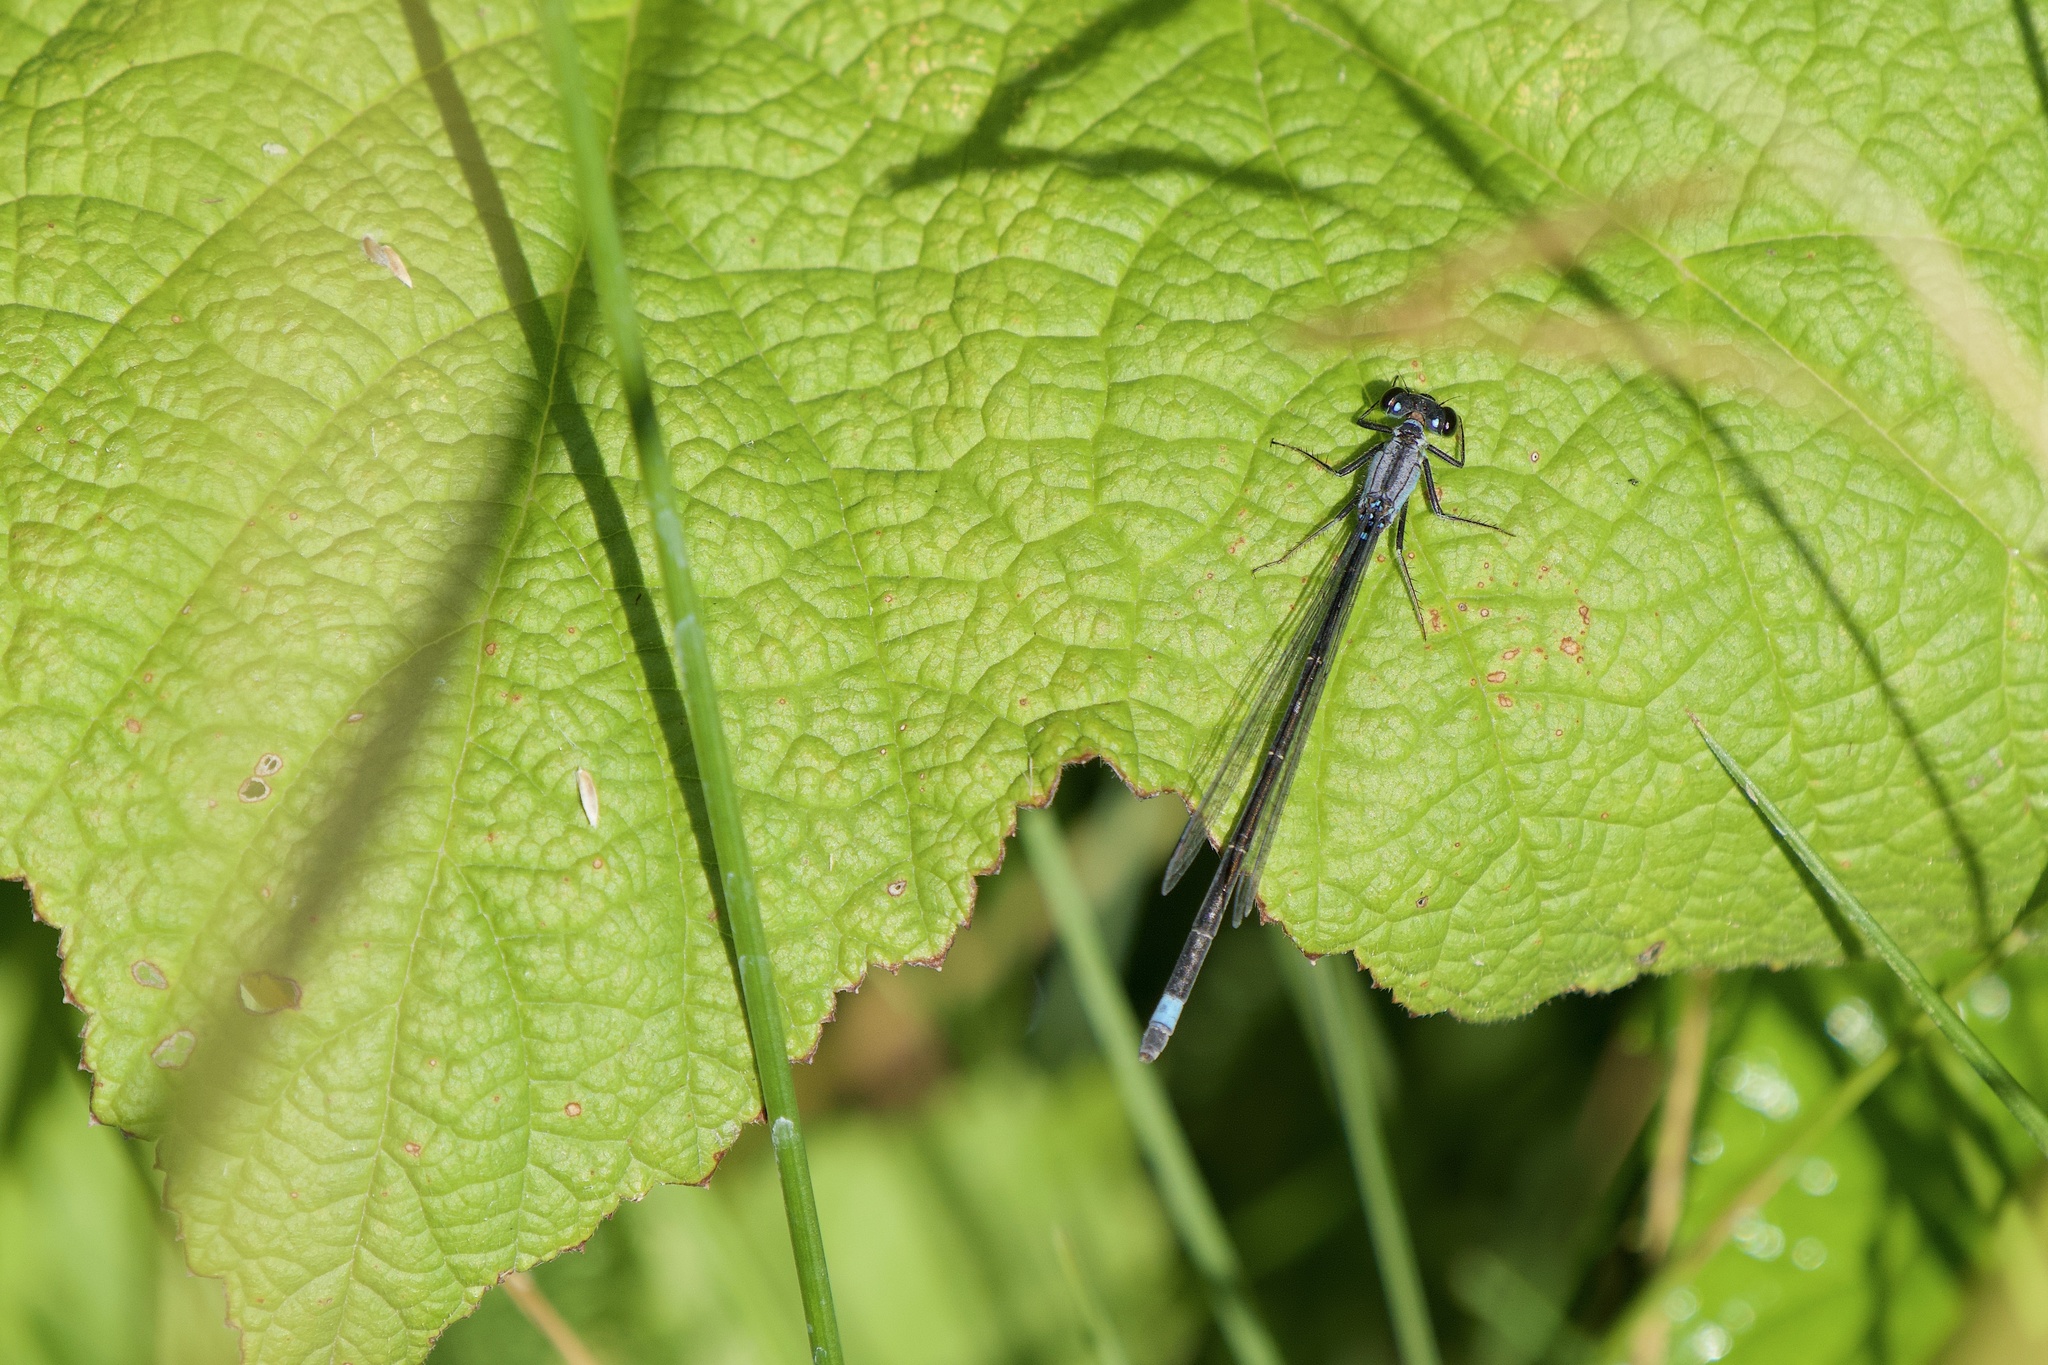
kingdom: Animalia
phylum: Arthropoda
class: Insecta
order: Odonata
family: Coenagrionidae
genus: Ischnura
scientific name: Ischnura cervula
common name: Pacific forktail
